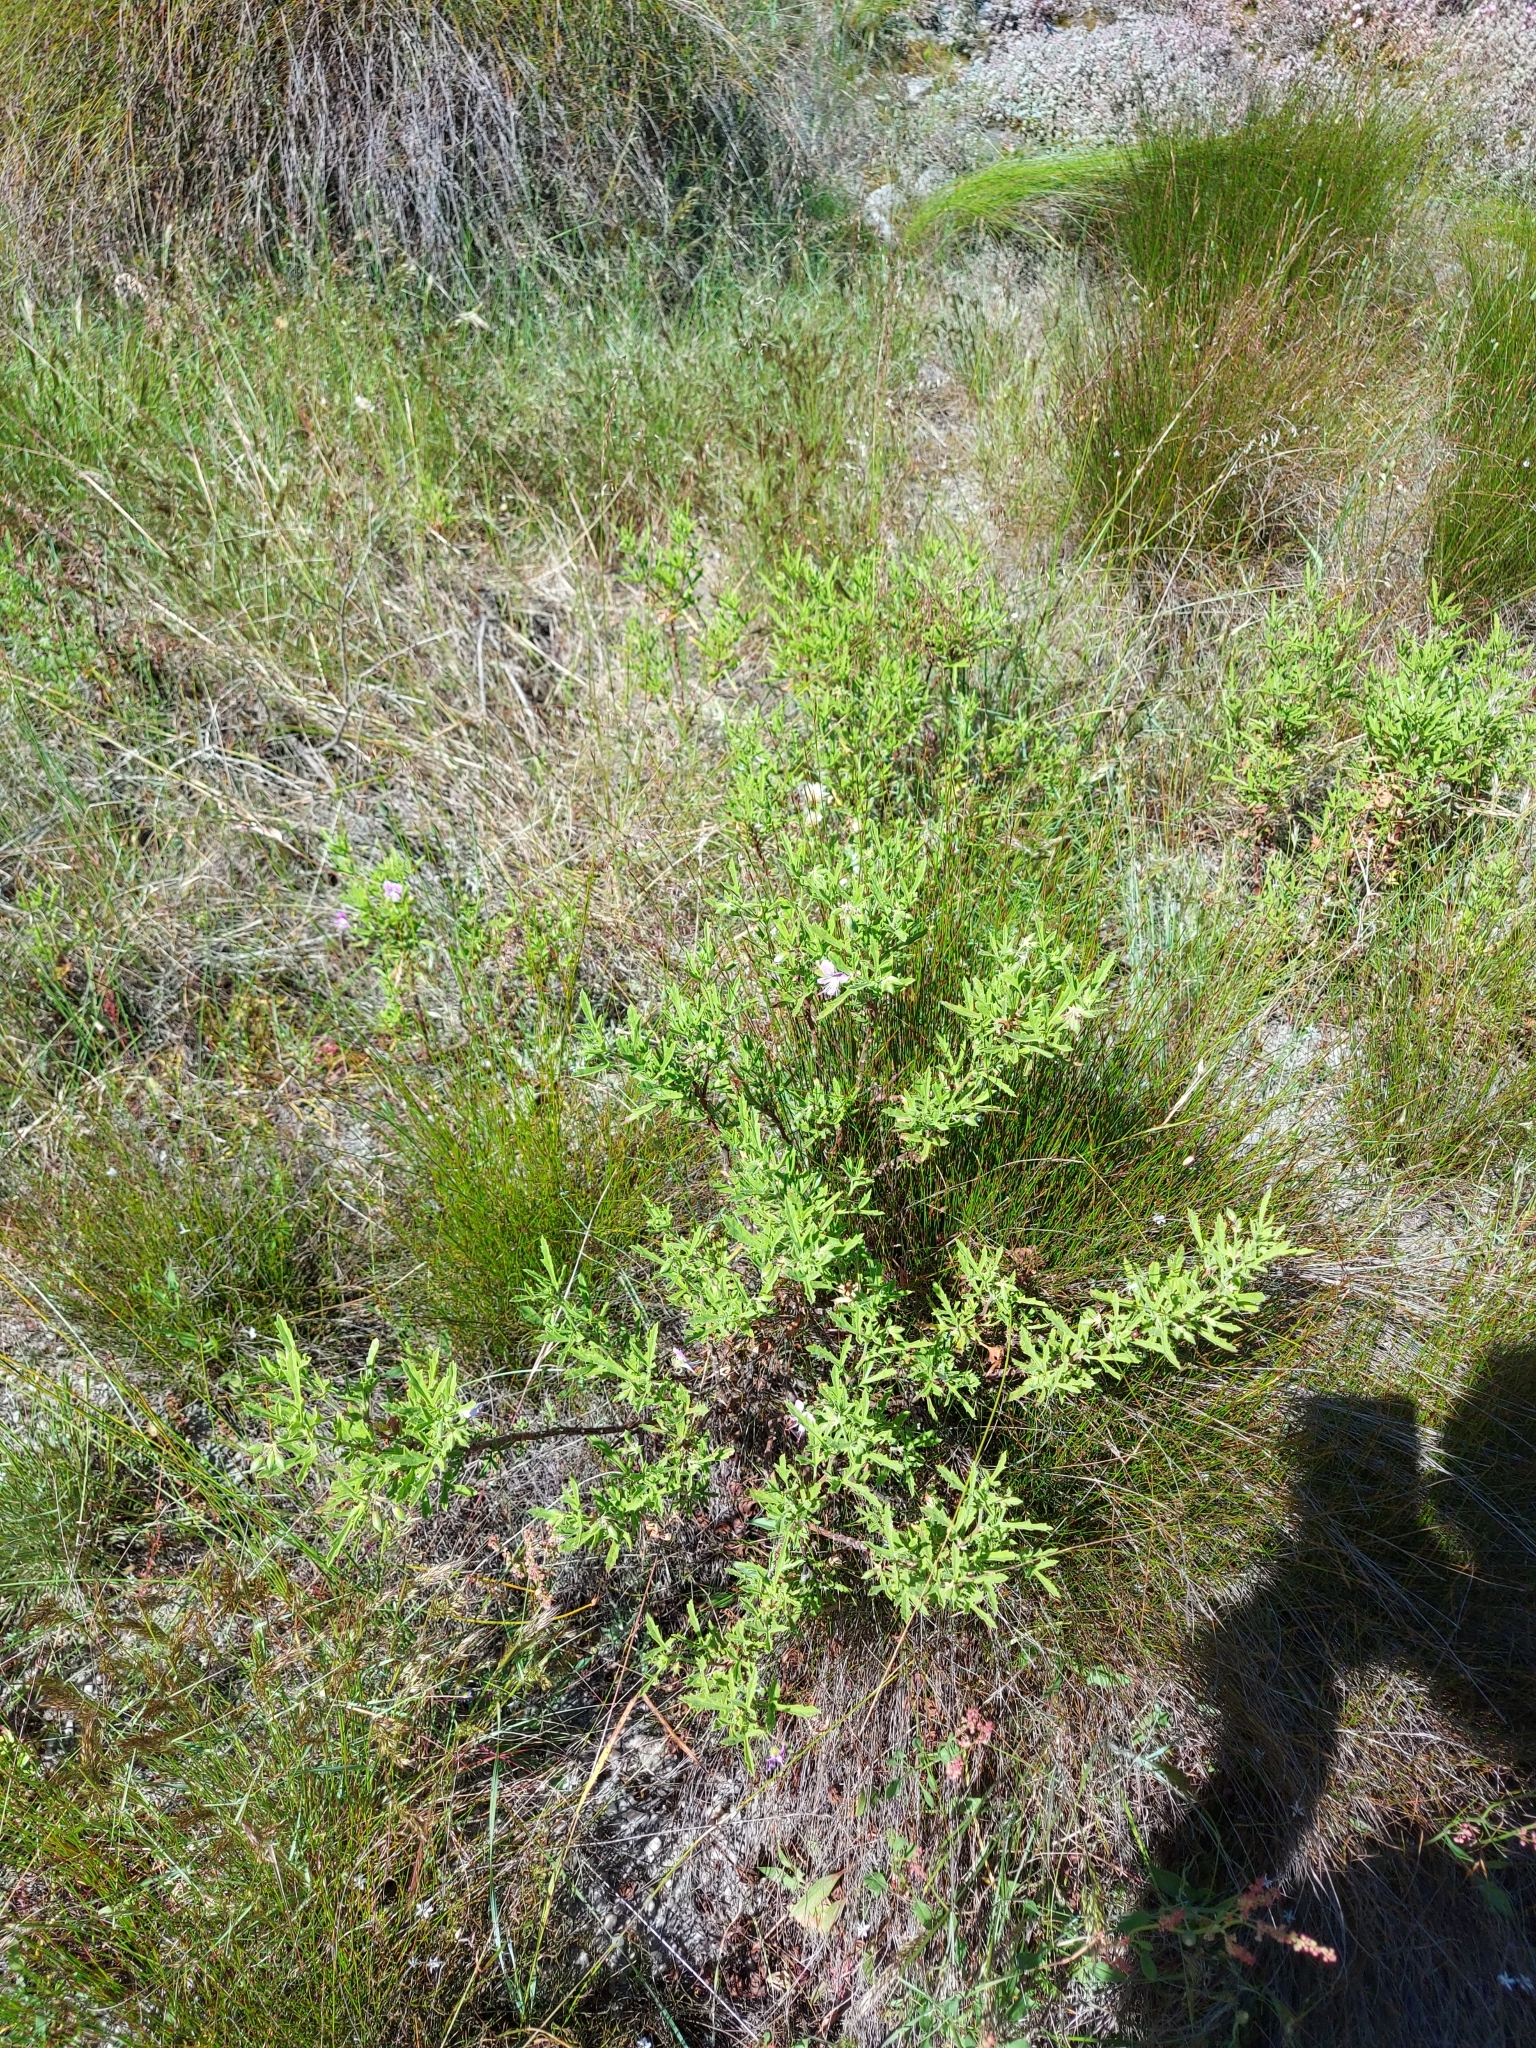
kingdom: Plantae
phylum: Tracheophyta
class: Magnoliopsida
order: Geraniales
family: Geraniaceae
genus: Pelargonium
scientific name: Pelargonium scabrum
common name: Apricot geranium
